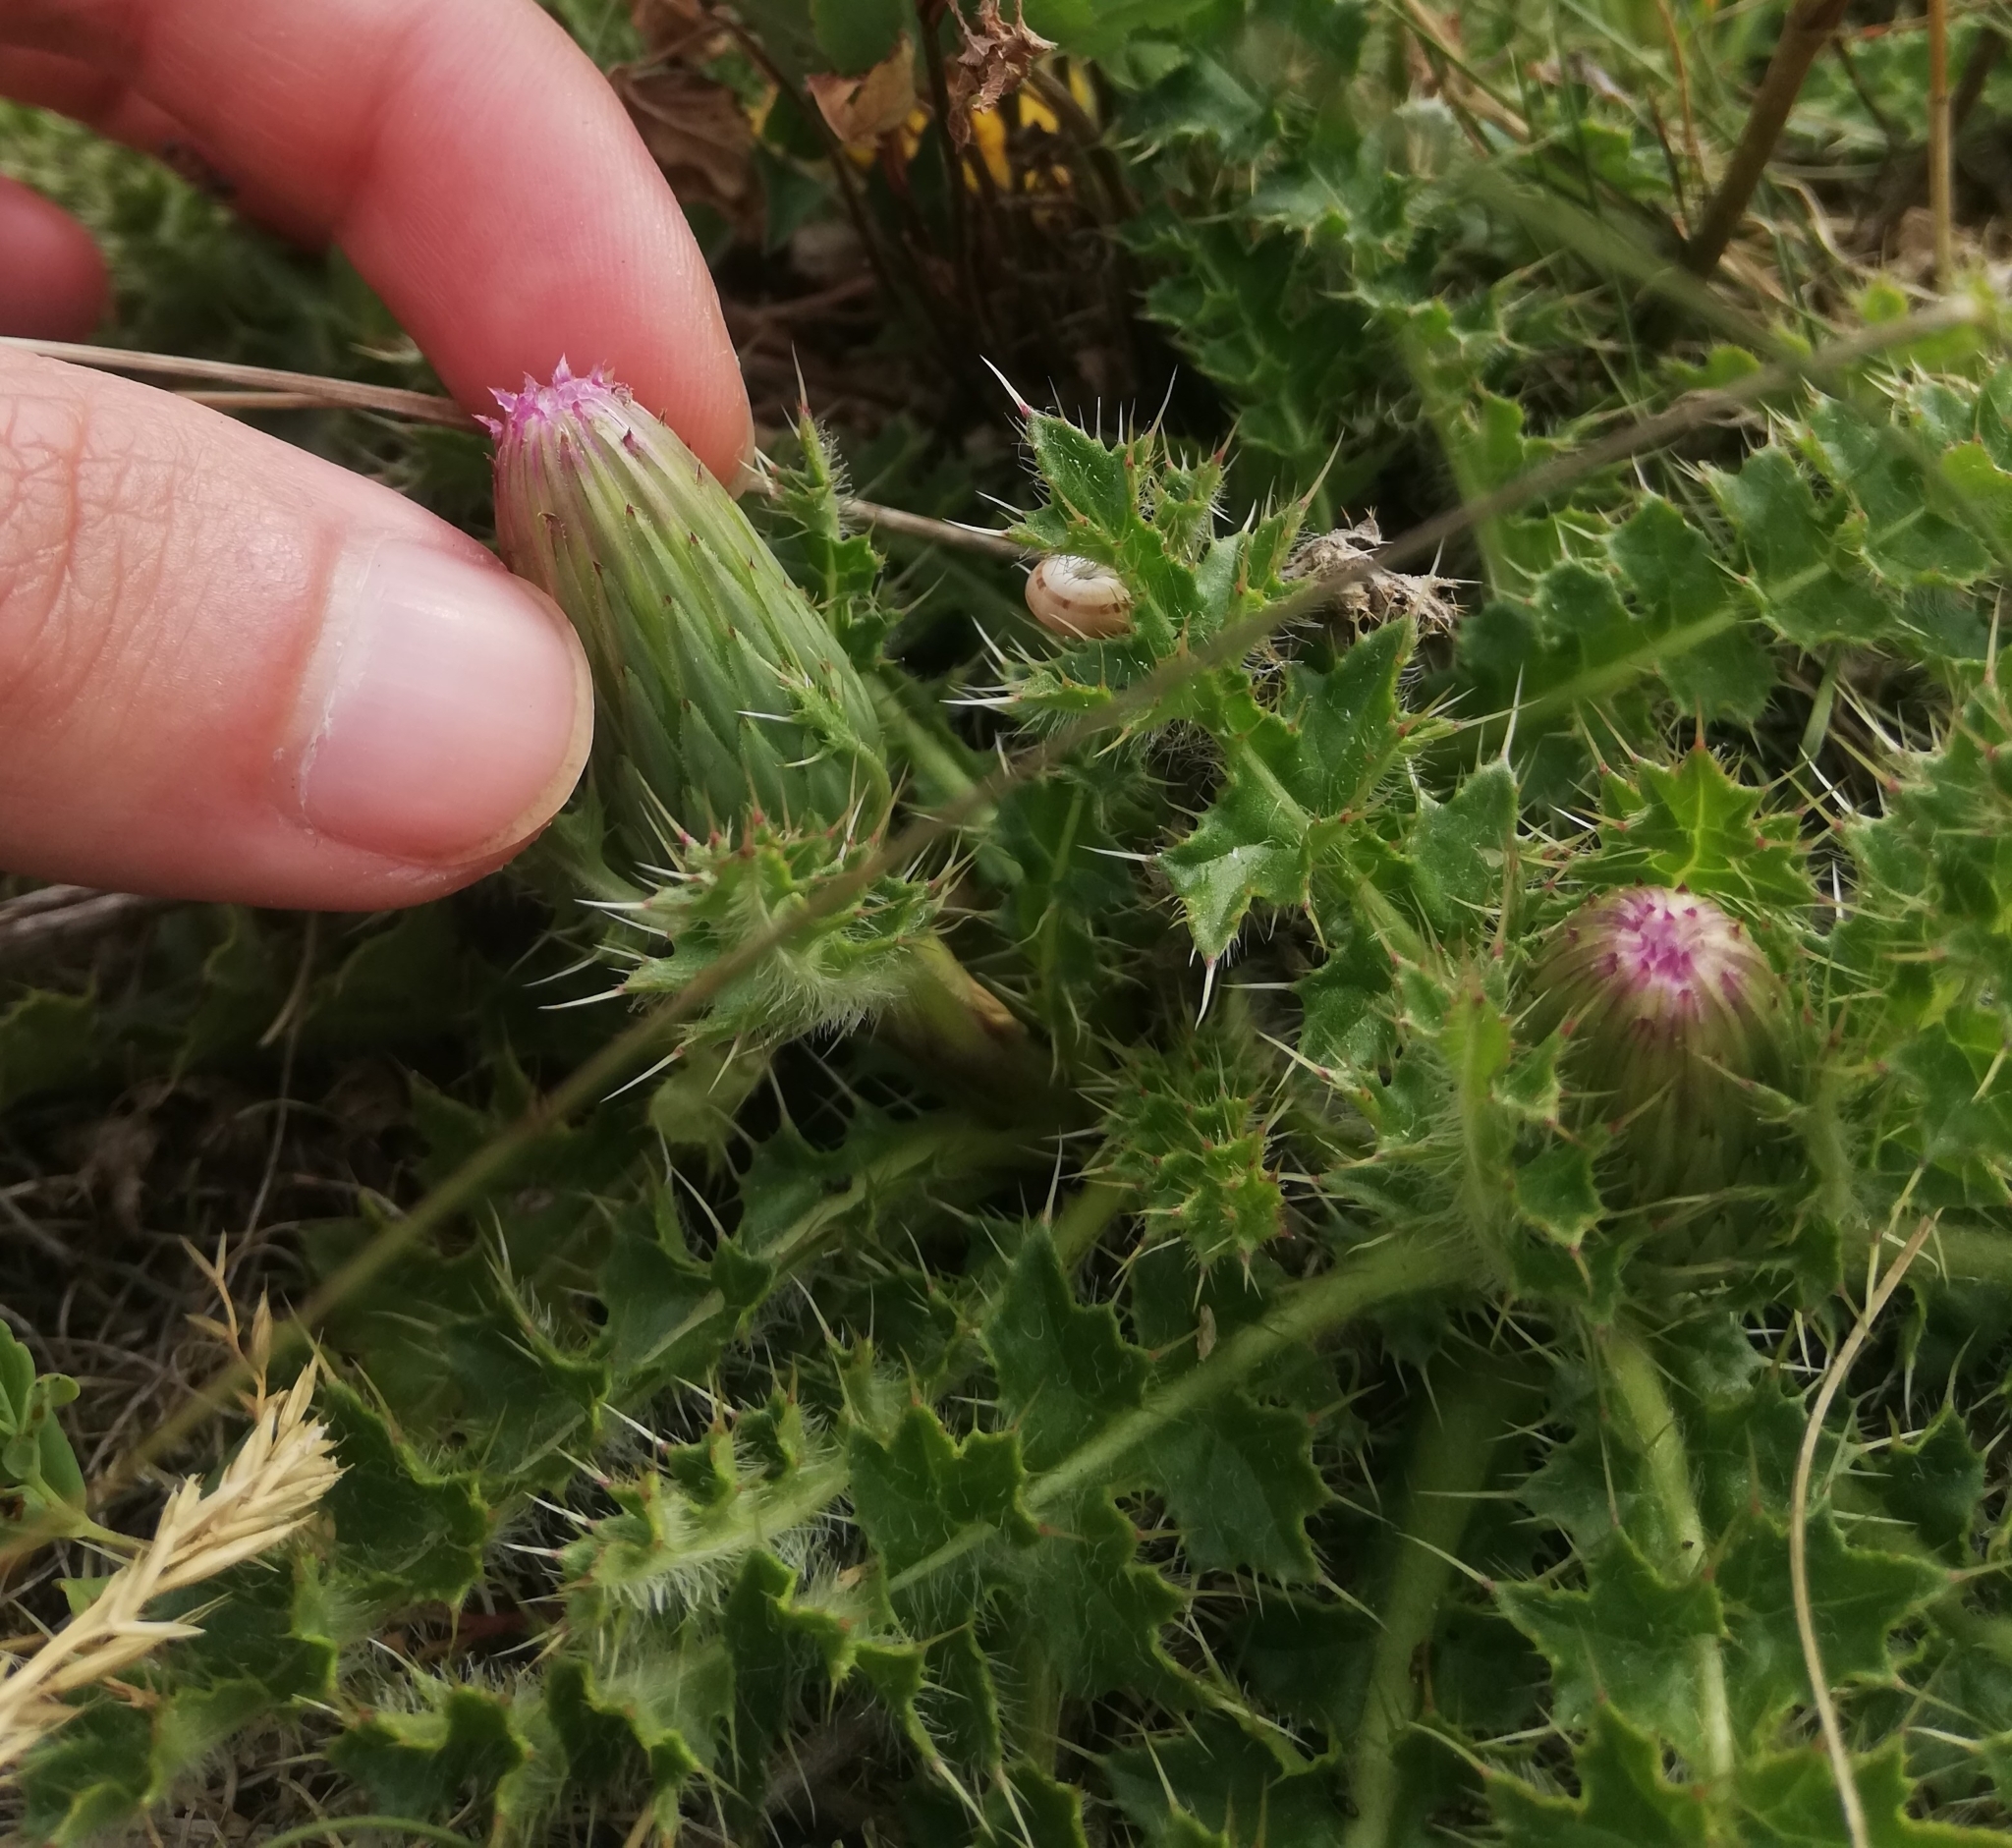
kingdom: Plantae
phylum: Tracheophyta
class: Magnoliopsida
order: Asterales
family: Asteraceae
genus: Cirsium
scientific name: Cirsium acaulon
